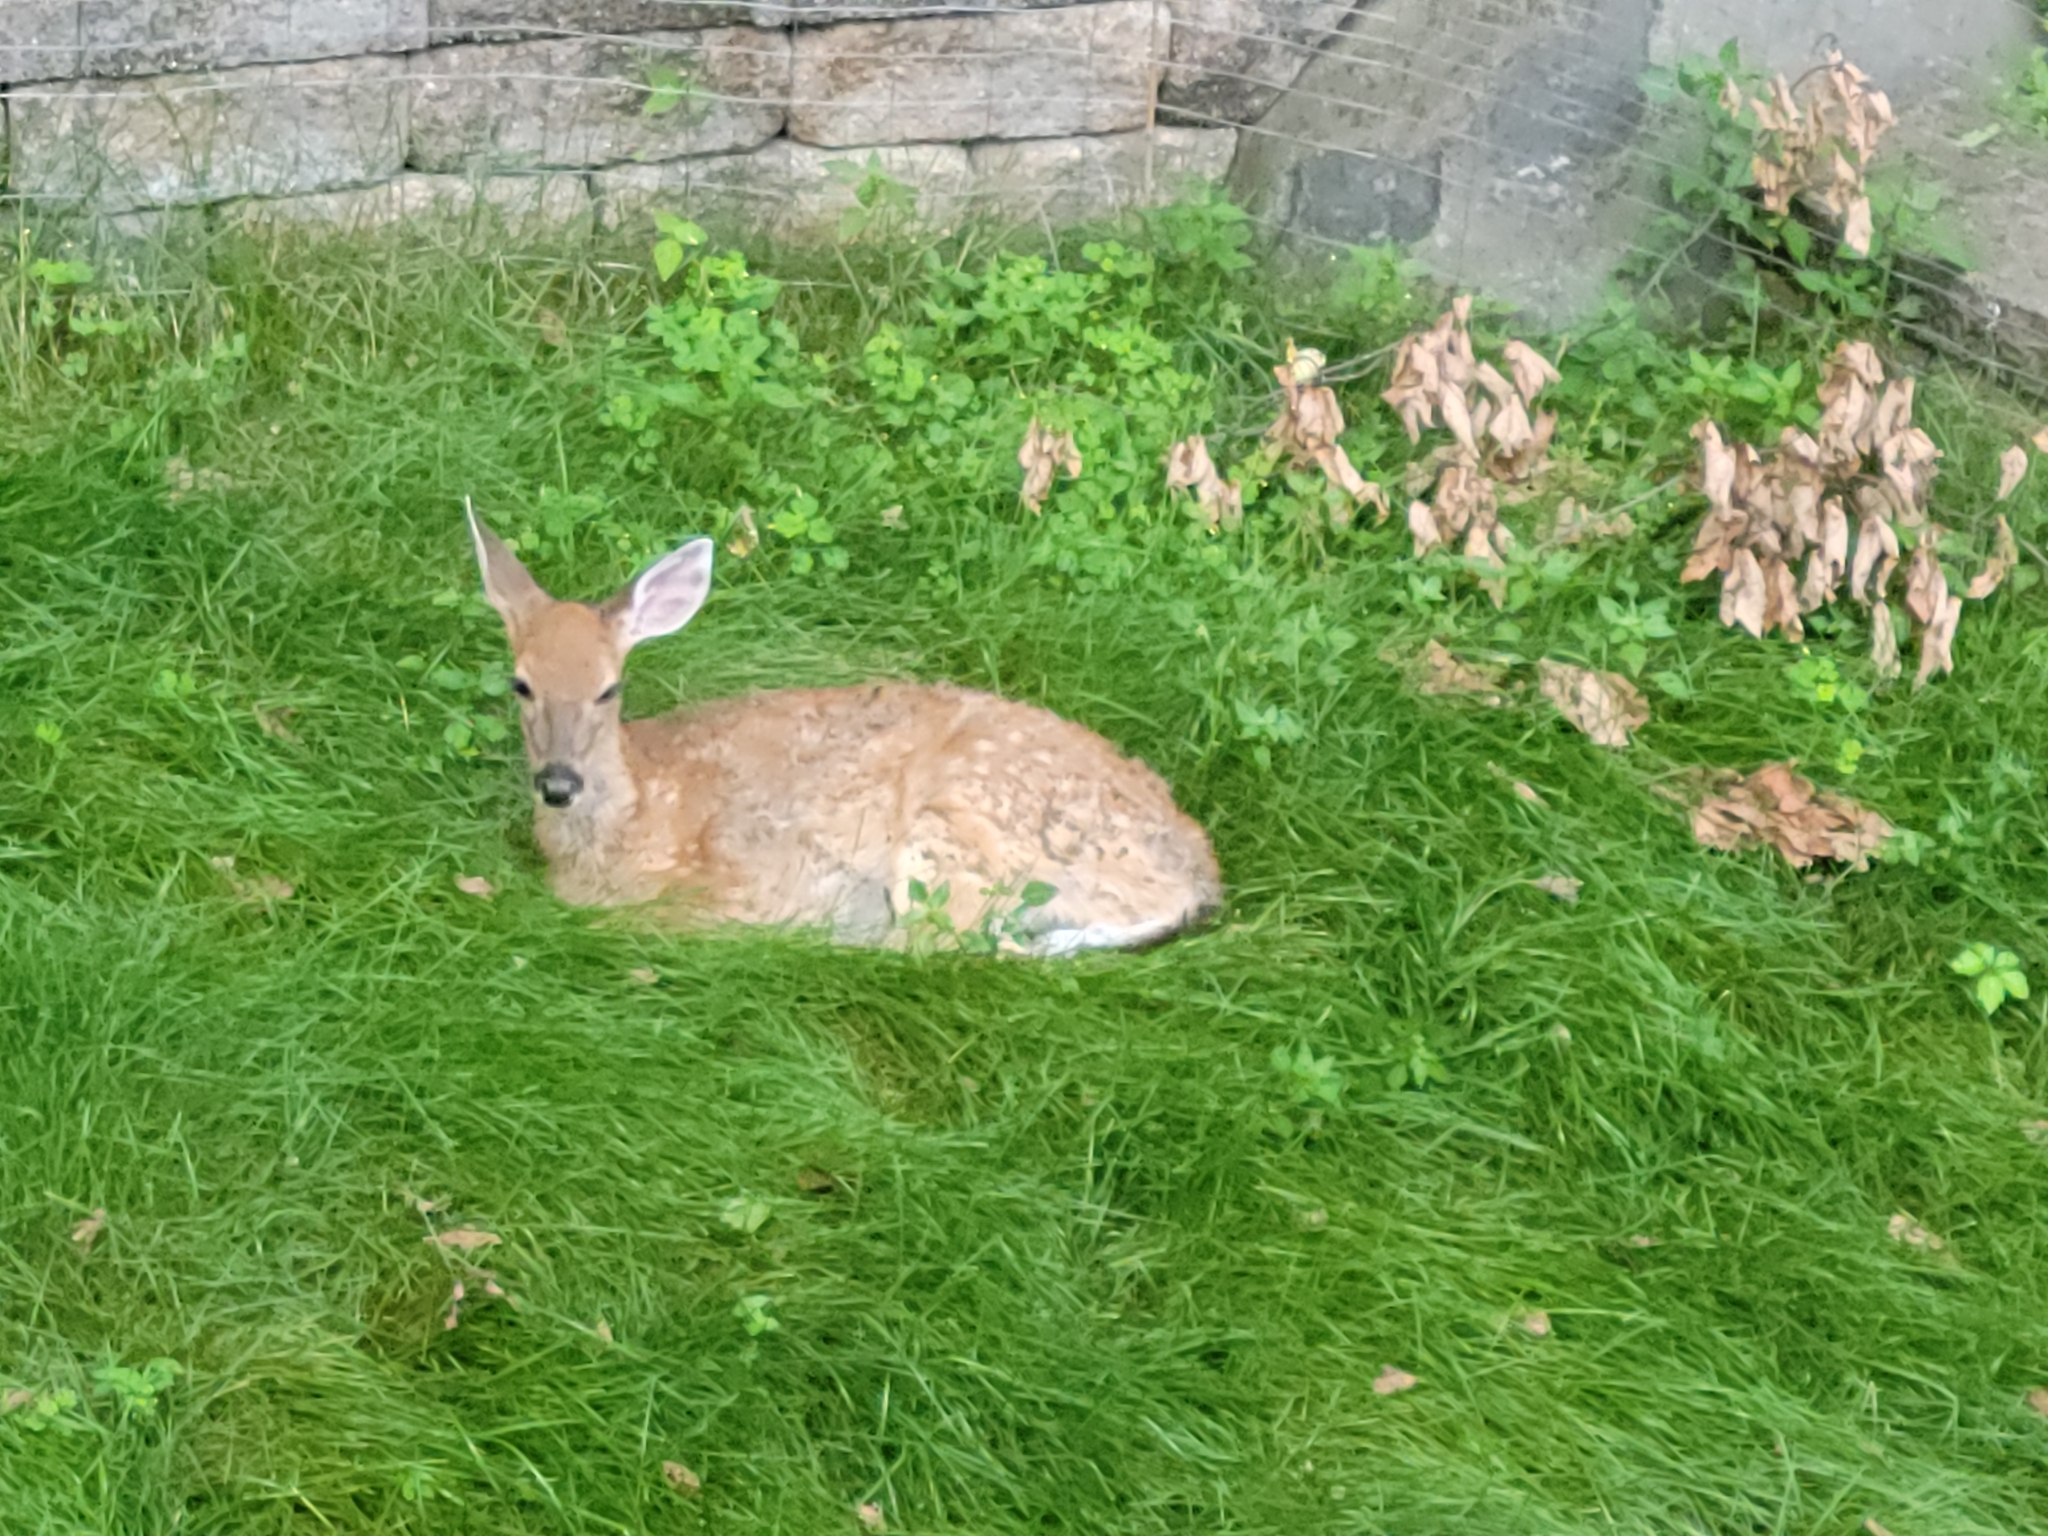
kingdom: Animalia
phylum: Chordata
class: Mammalia
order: Artiodactyla
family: Cervidae
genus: Odocoileus
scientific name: Odocoileus virginianus
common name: White-tailed deer
